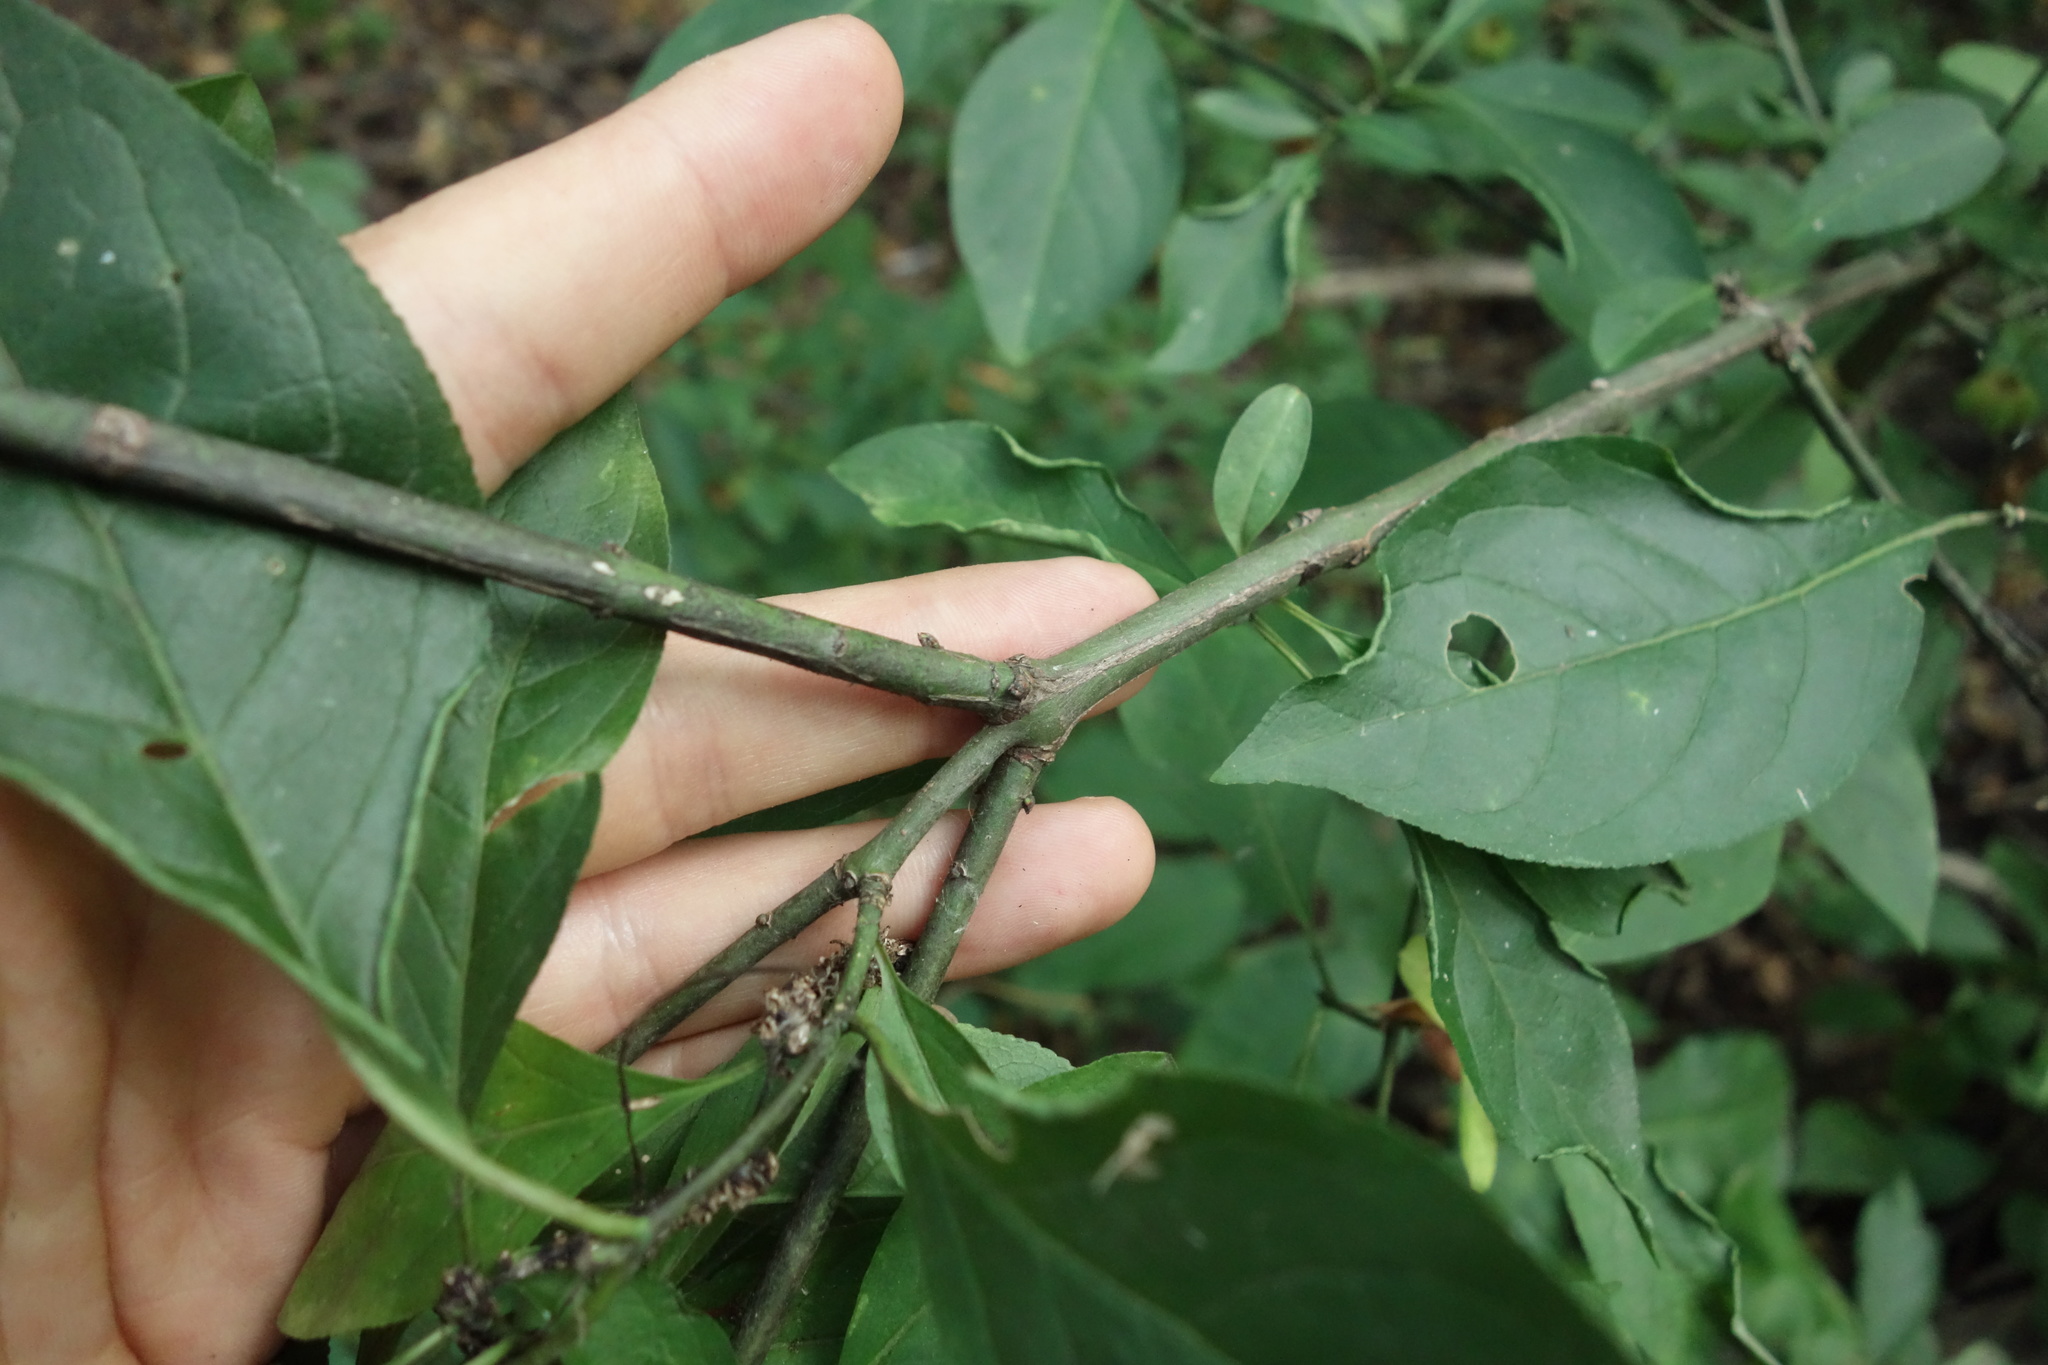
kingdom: Plantae
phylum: Tracheophyta
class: Magnoliopsida
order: Celastrales
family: Celastraceae
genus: Euonymus
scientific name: Euonymus europaeus
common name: Spindle
